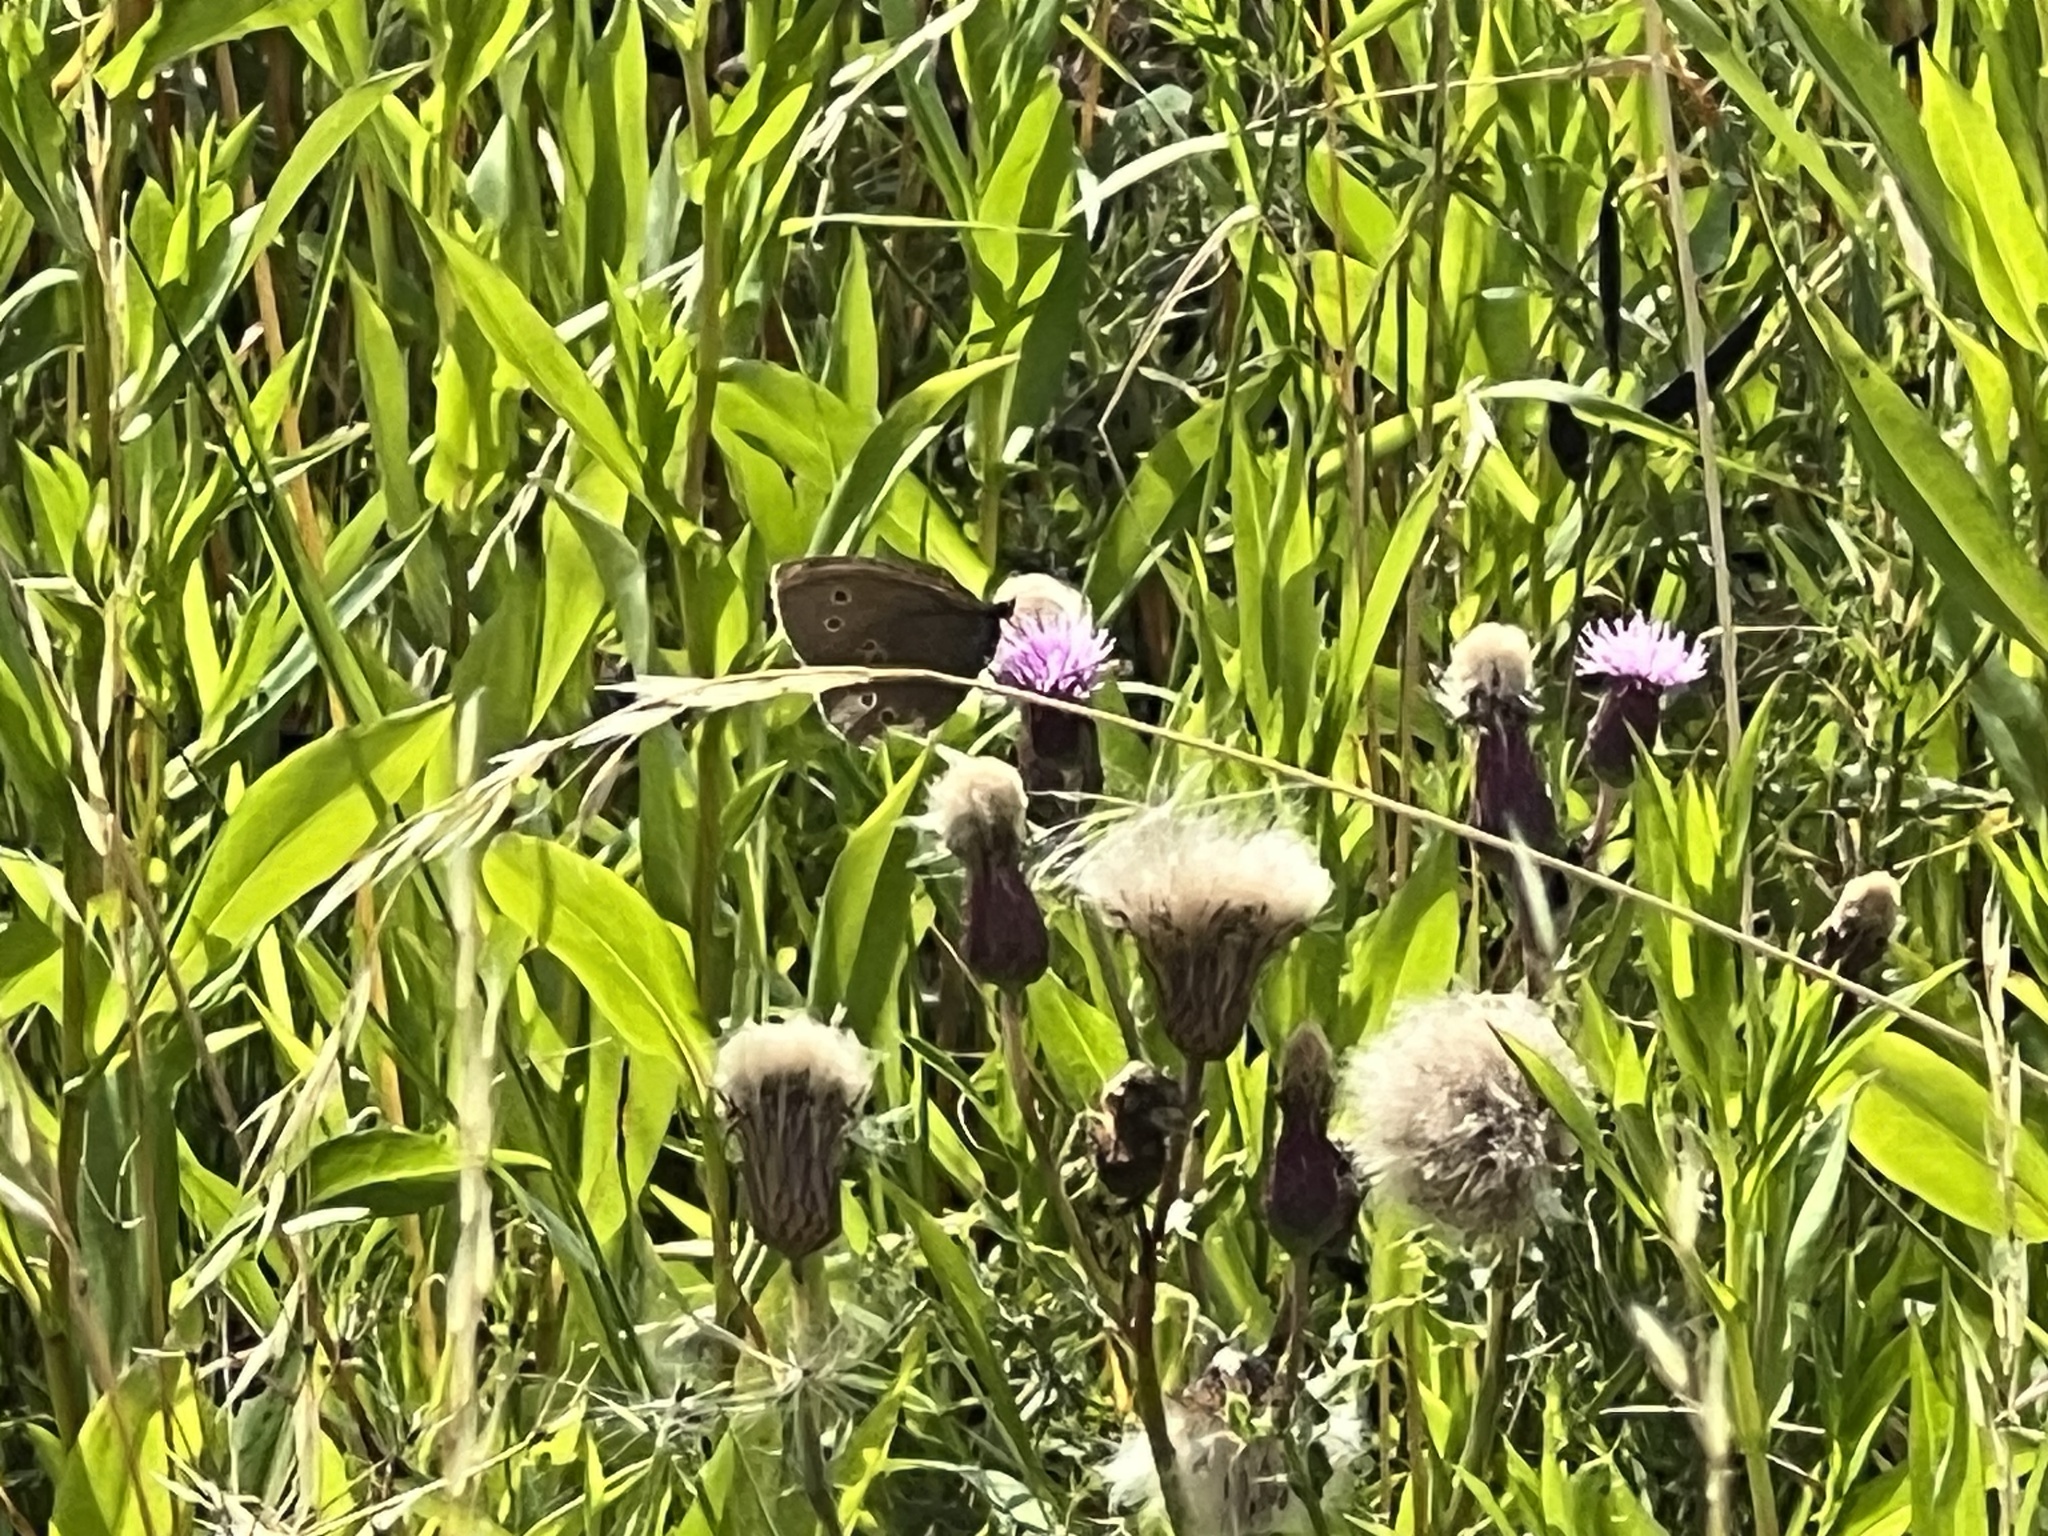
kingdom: Animalia
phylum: Arthropoda
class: Insecta
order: Lepidoptera
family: Nymphalidae
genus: Aphantopus
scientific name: Aphantopus hyperantus
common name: Ringlet
